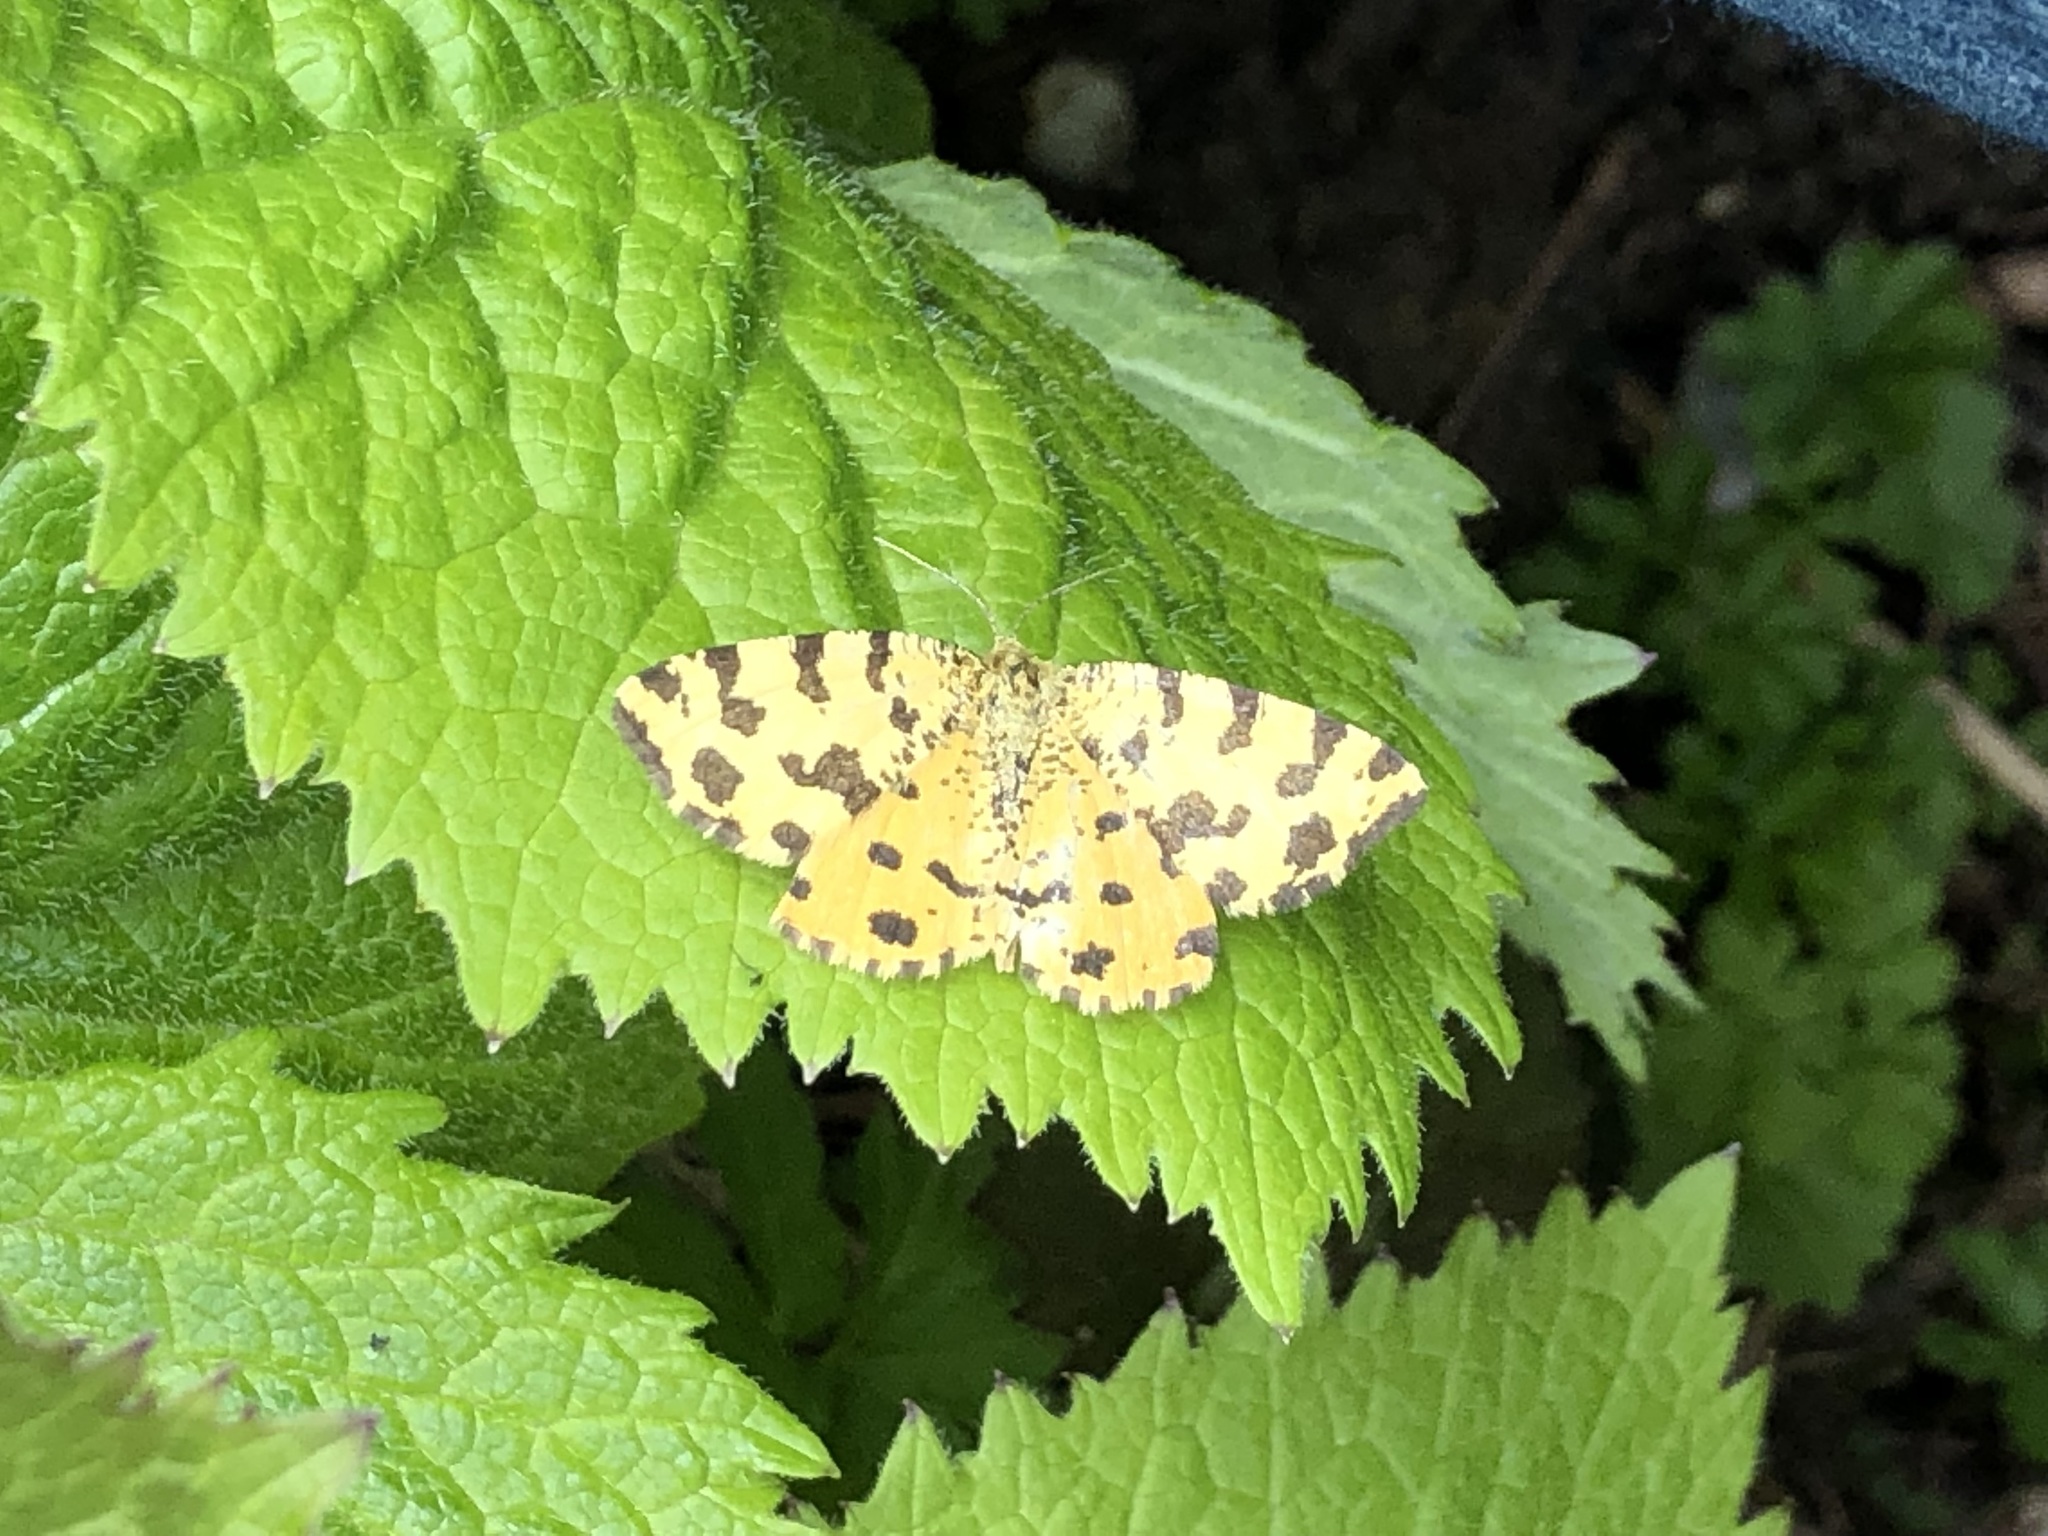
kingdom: Animalia
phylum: Arthropoda
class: Insecta
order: Lepidoptera
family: Geometridae
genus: Pseudopanthera
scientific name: Pseudopanthera macularia
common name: Speckled yellow
